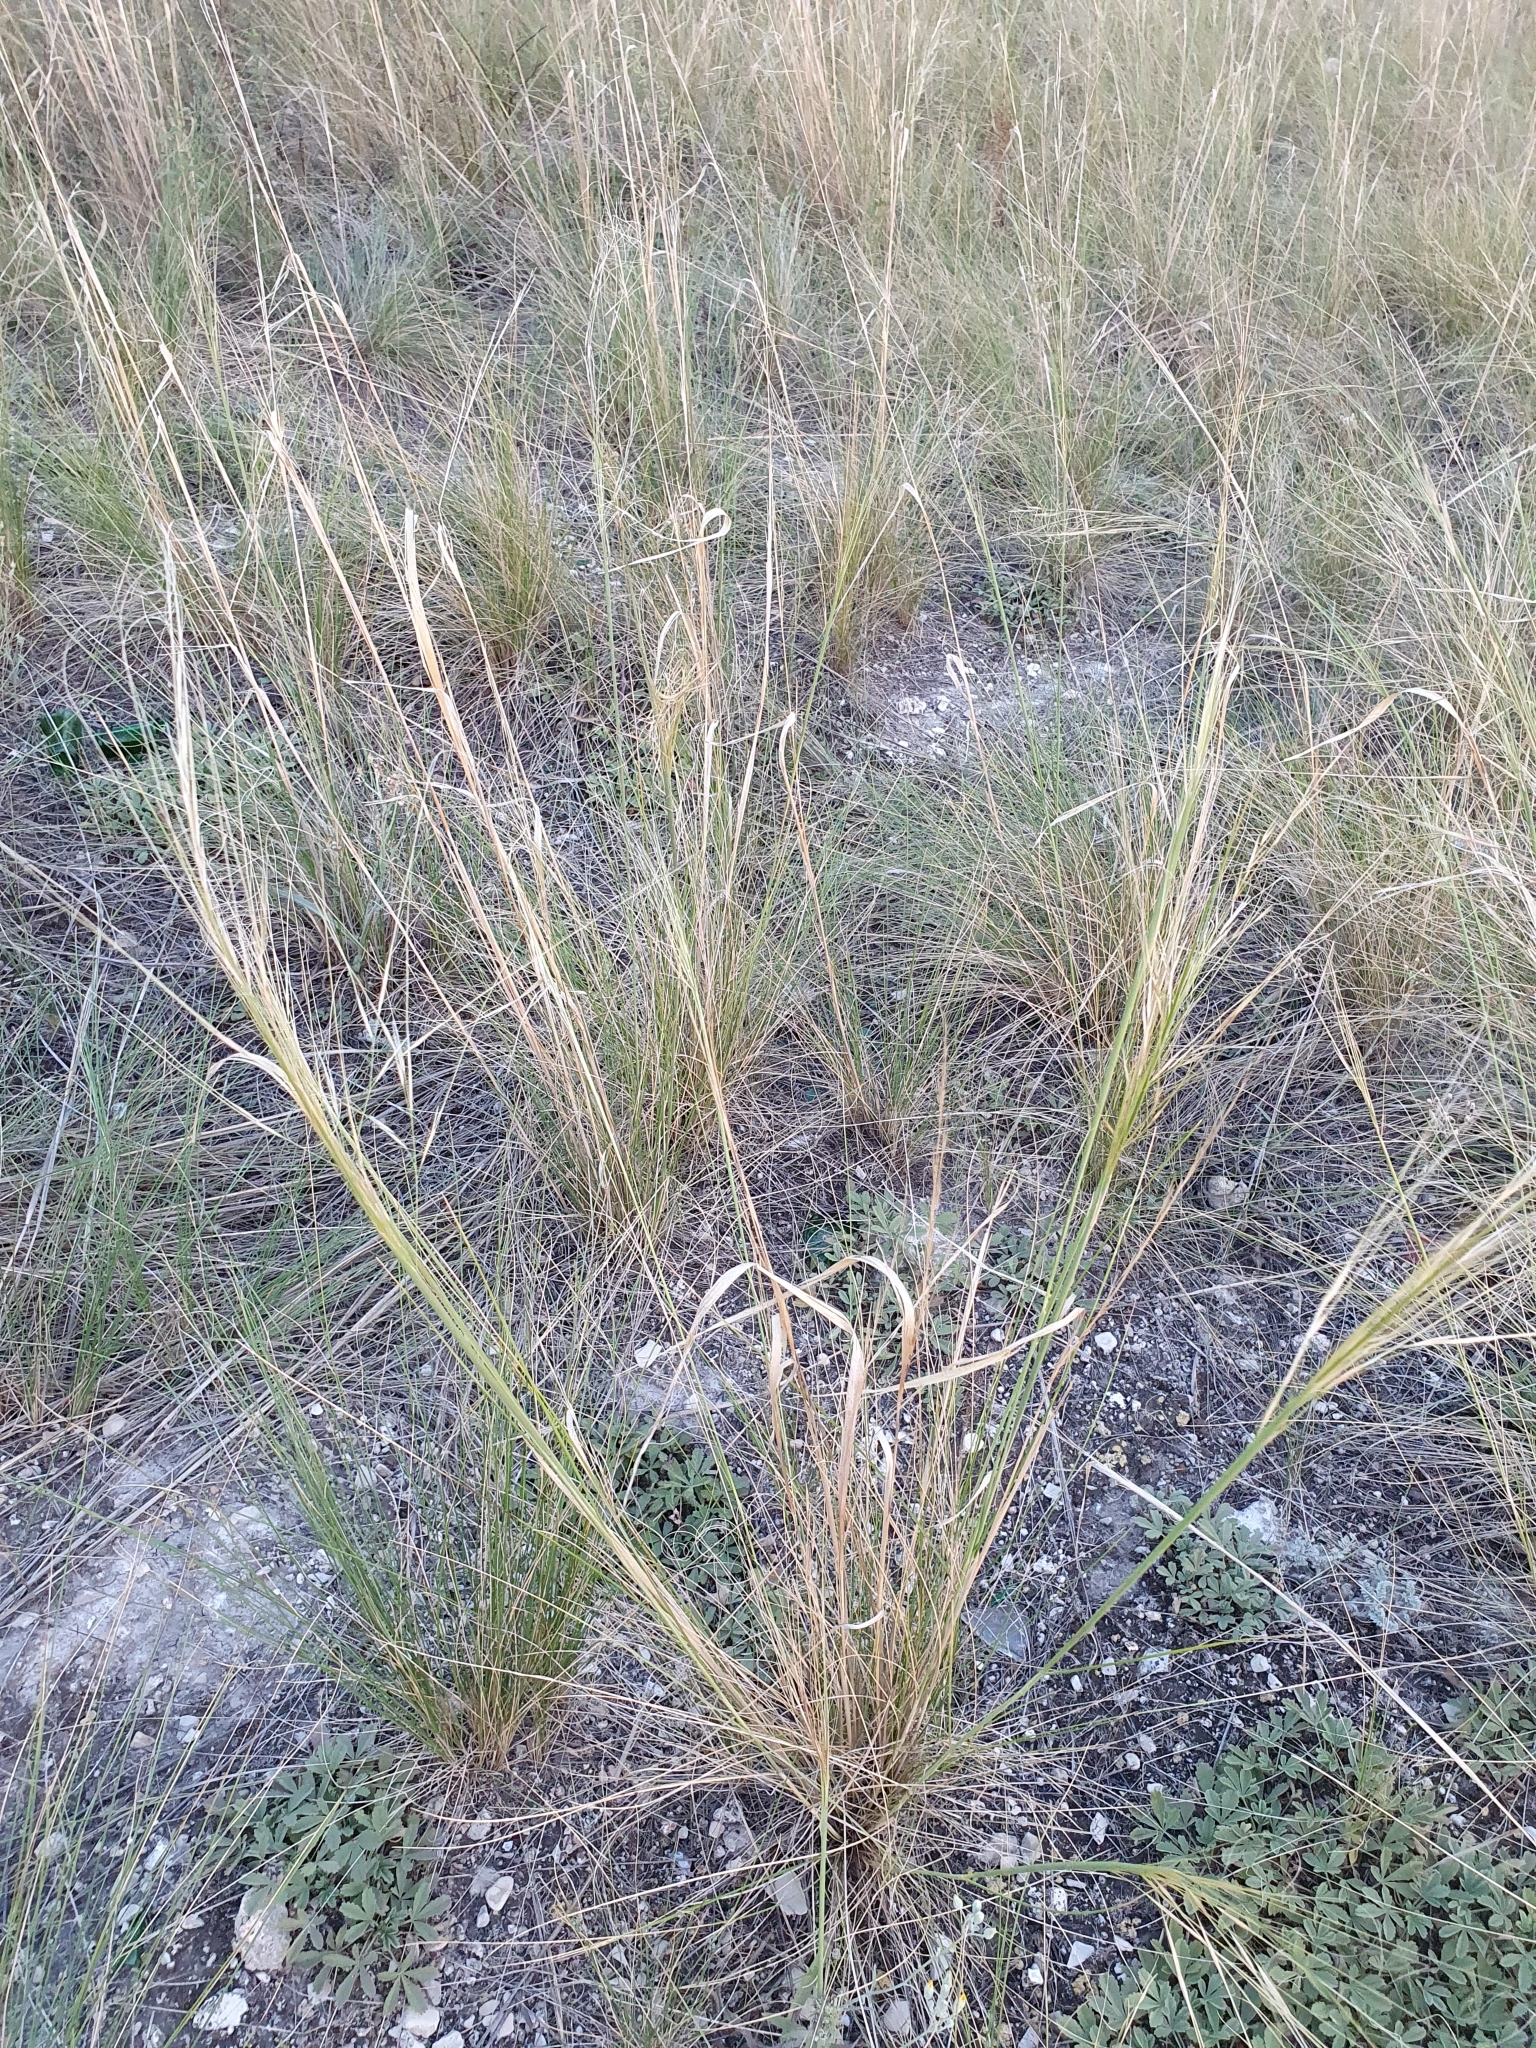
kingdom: Plantae
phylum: Tracheophyta
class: Liliopsida
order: Poales
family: Poaceae
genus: Stipa
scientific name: Stipa capillata
